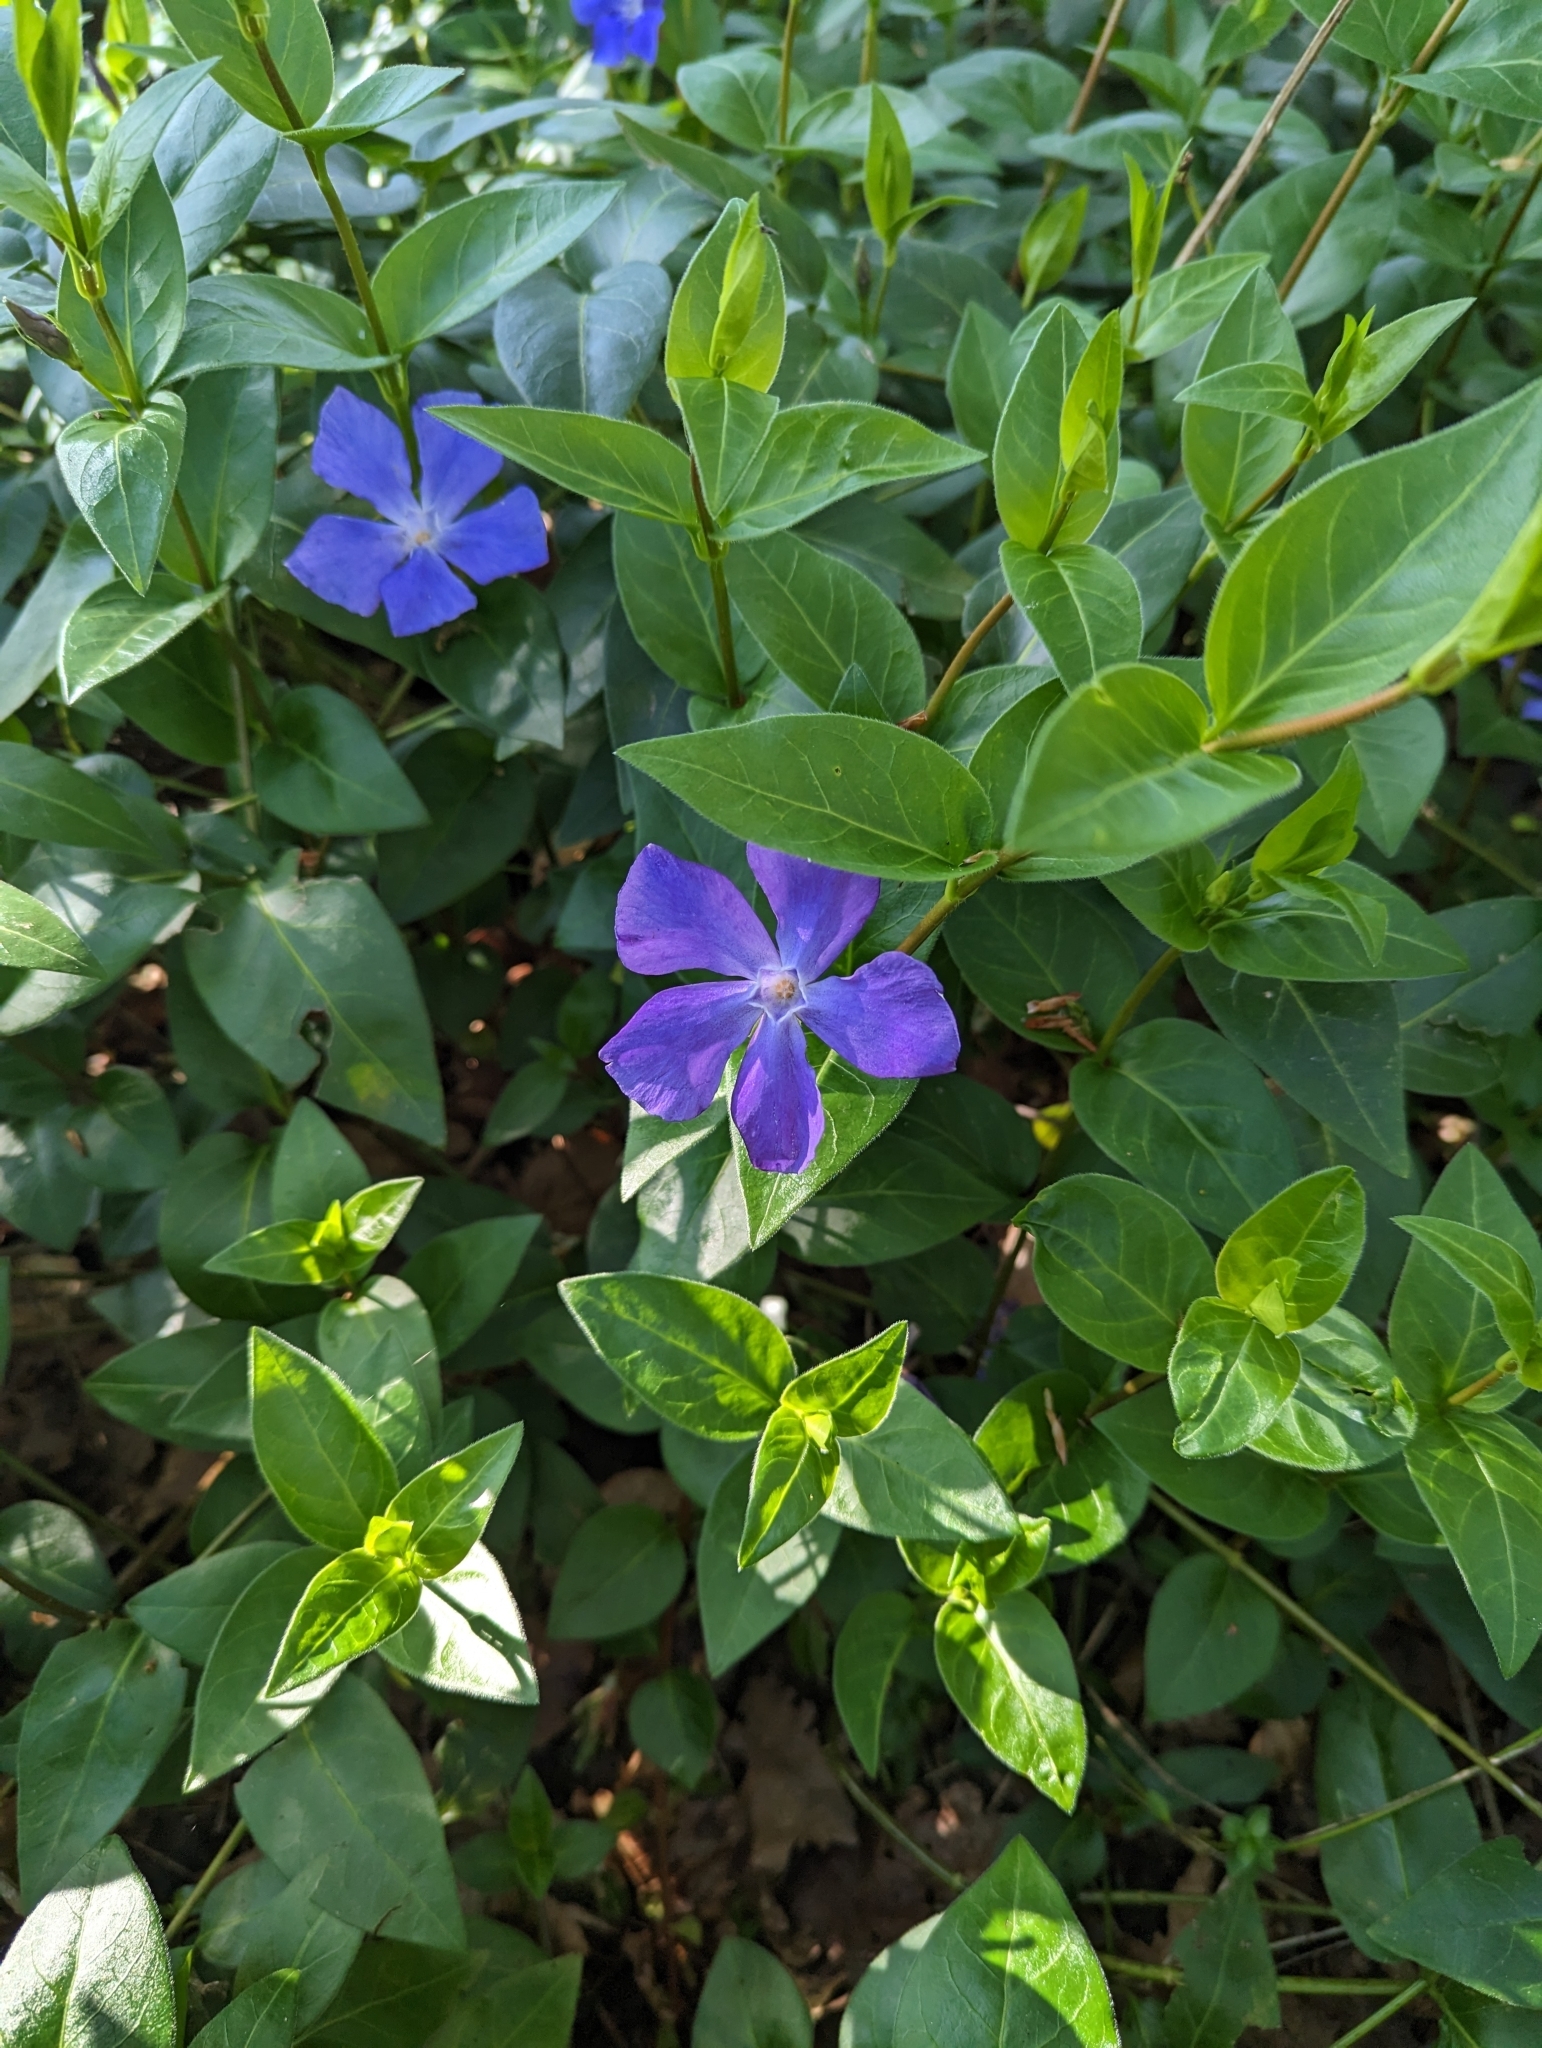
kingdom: Plantae
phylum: Tracheophyta
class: Magnoliopsida
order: Gentianales
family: Apocynaceae
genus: Vinca
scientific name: Vinca major
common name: Greater periwinkle
